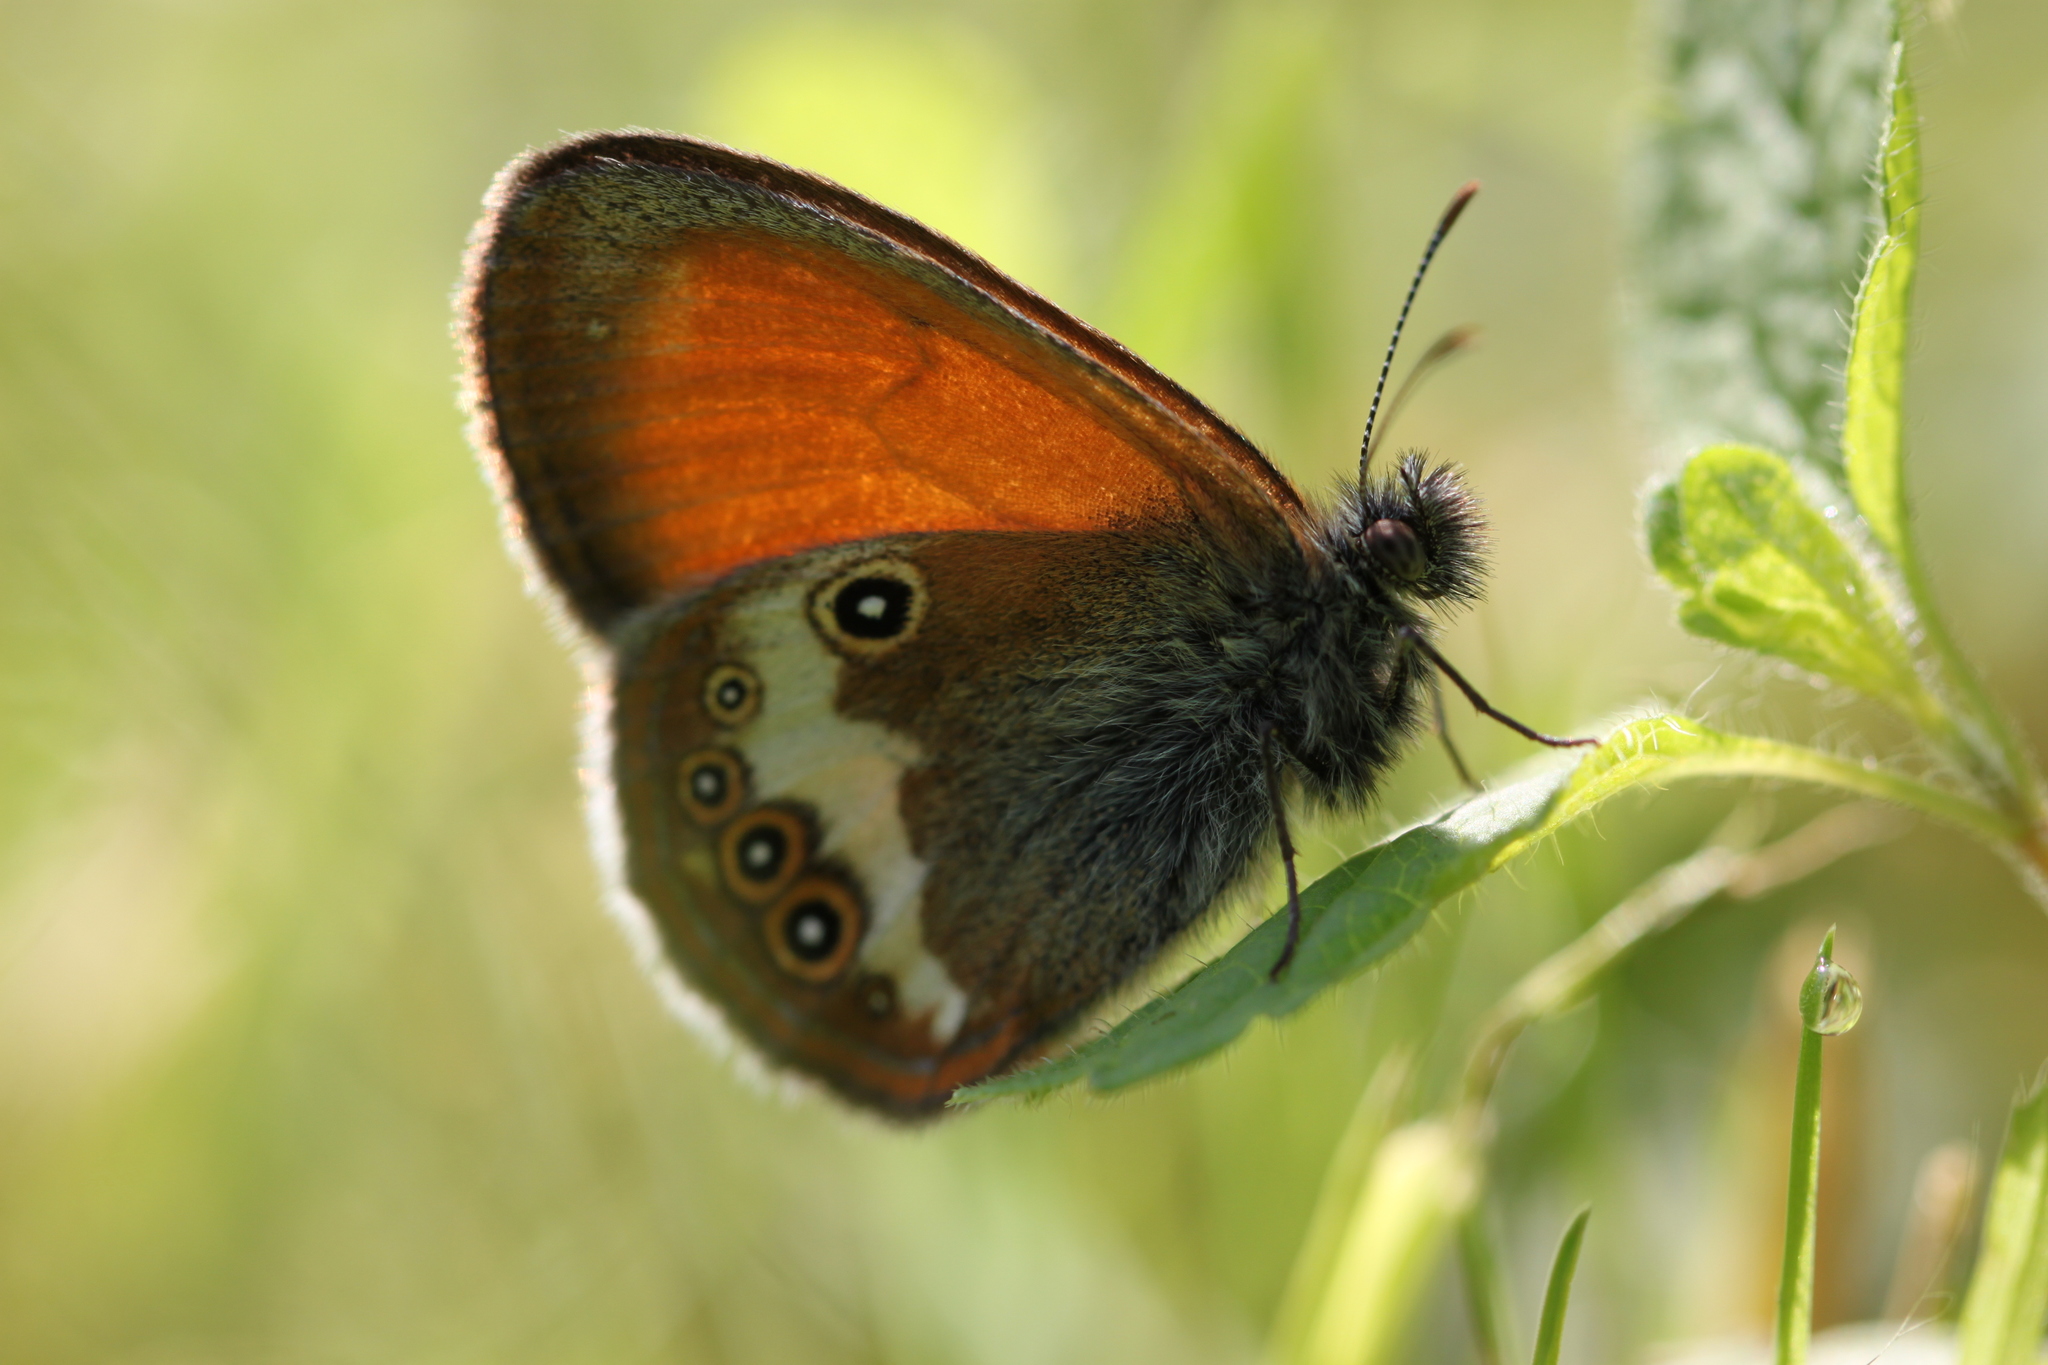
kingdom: Animalia
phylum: Arthropoda
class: Insecta
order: Lepidoptera
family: Nymphalidae
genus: Coenonympha
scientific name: Coenonympha arcania
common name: Pearly heath
